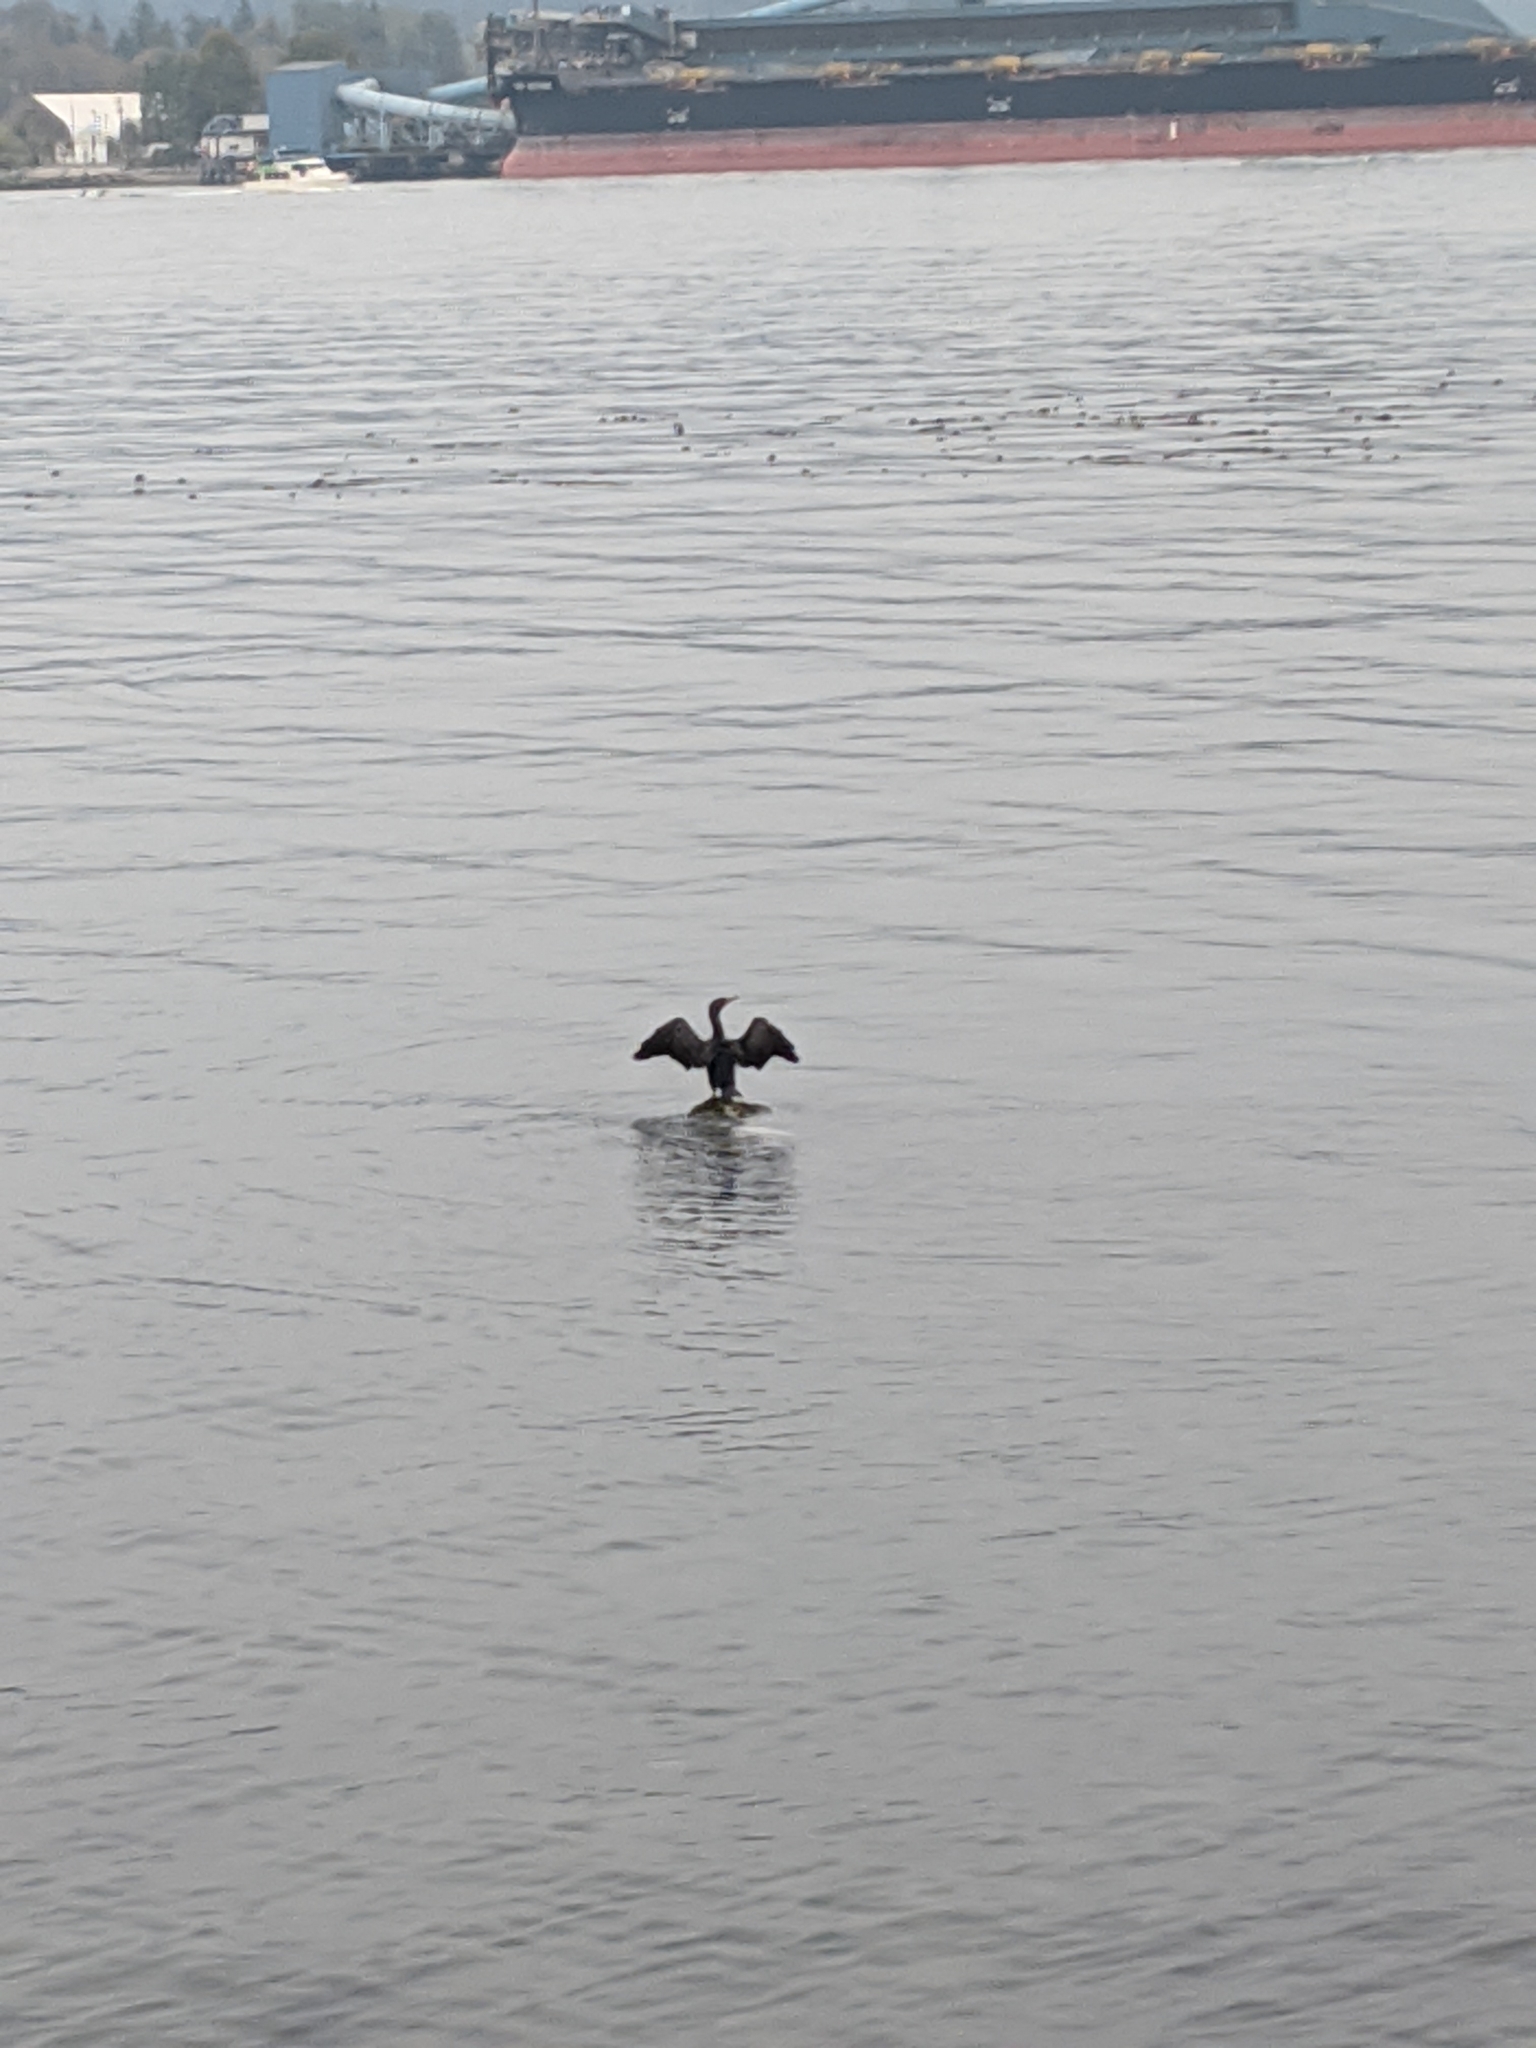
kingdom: Animalia
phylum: Chordata
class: Aves
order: Suliformes
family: Phalacrocoracidae
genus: Phalacrocorax
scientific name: Phalacrocorax auritus
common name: Double-crested cormorant
